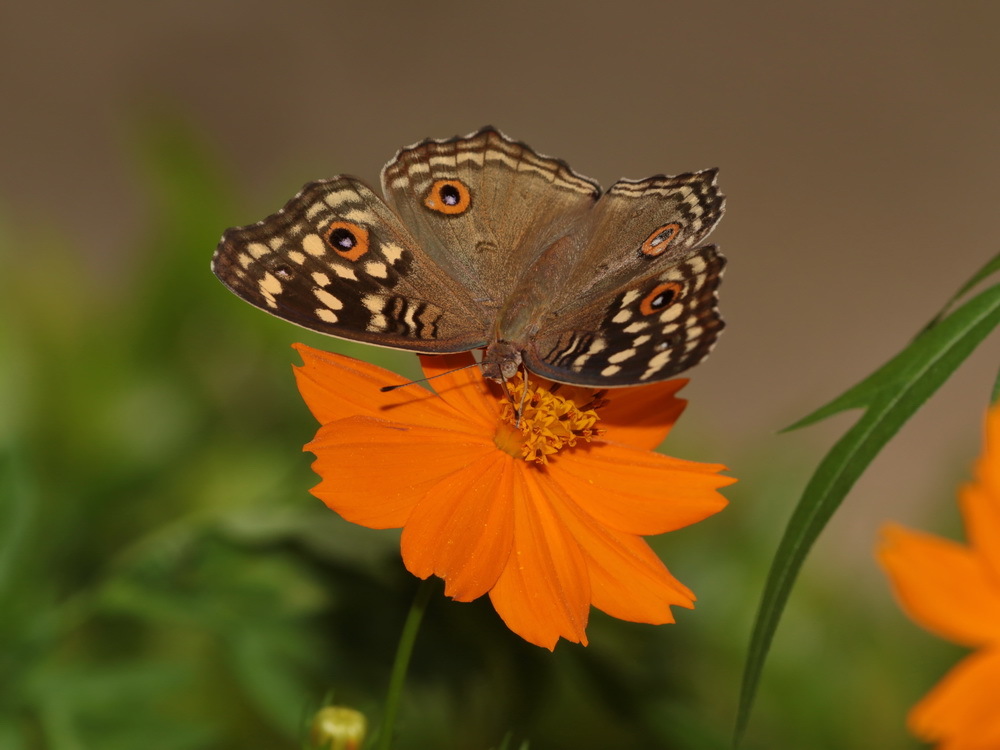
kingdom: Animalia
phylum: Arthropoda
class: Insecta
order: Lepidoptera
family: Nymphalidae
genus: Junonia
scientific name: Junonia lemonias
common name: Lemon pansy
